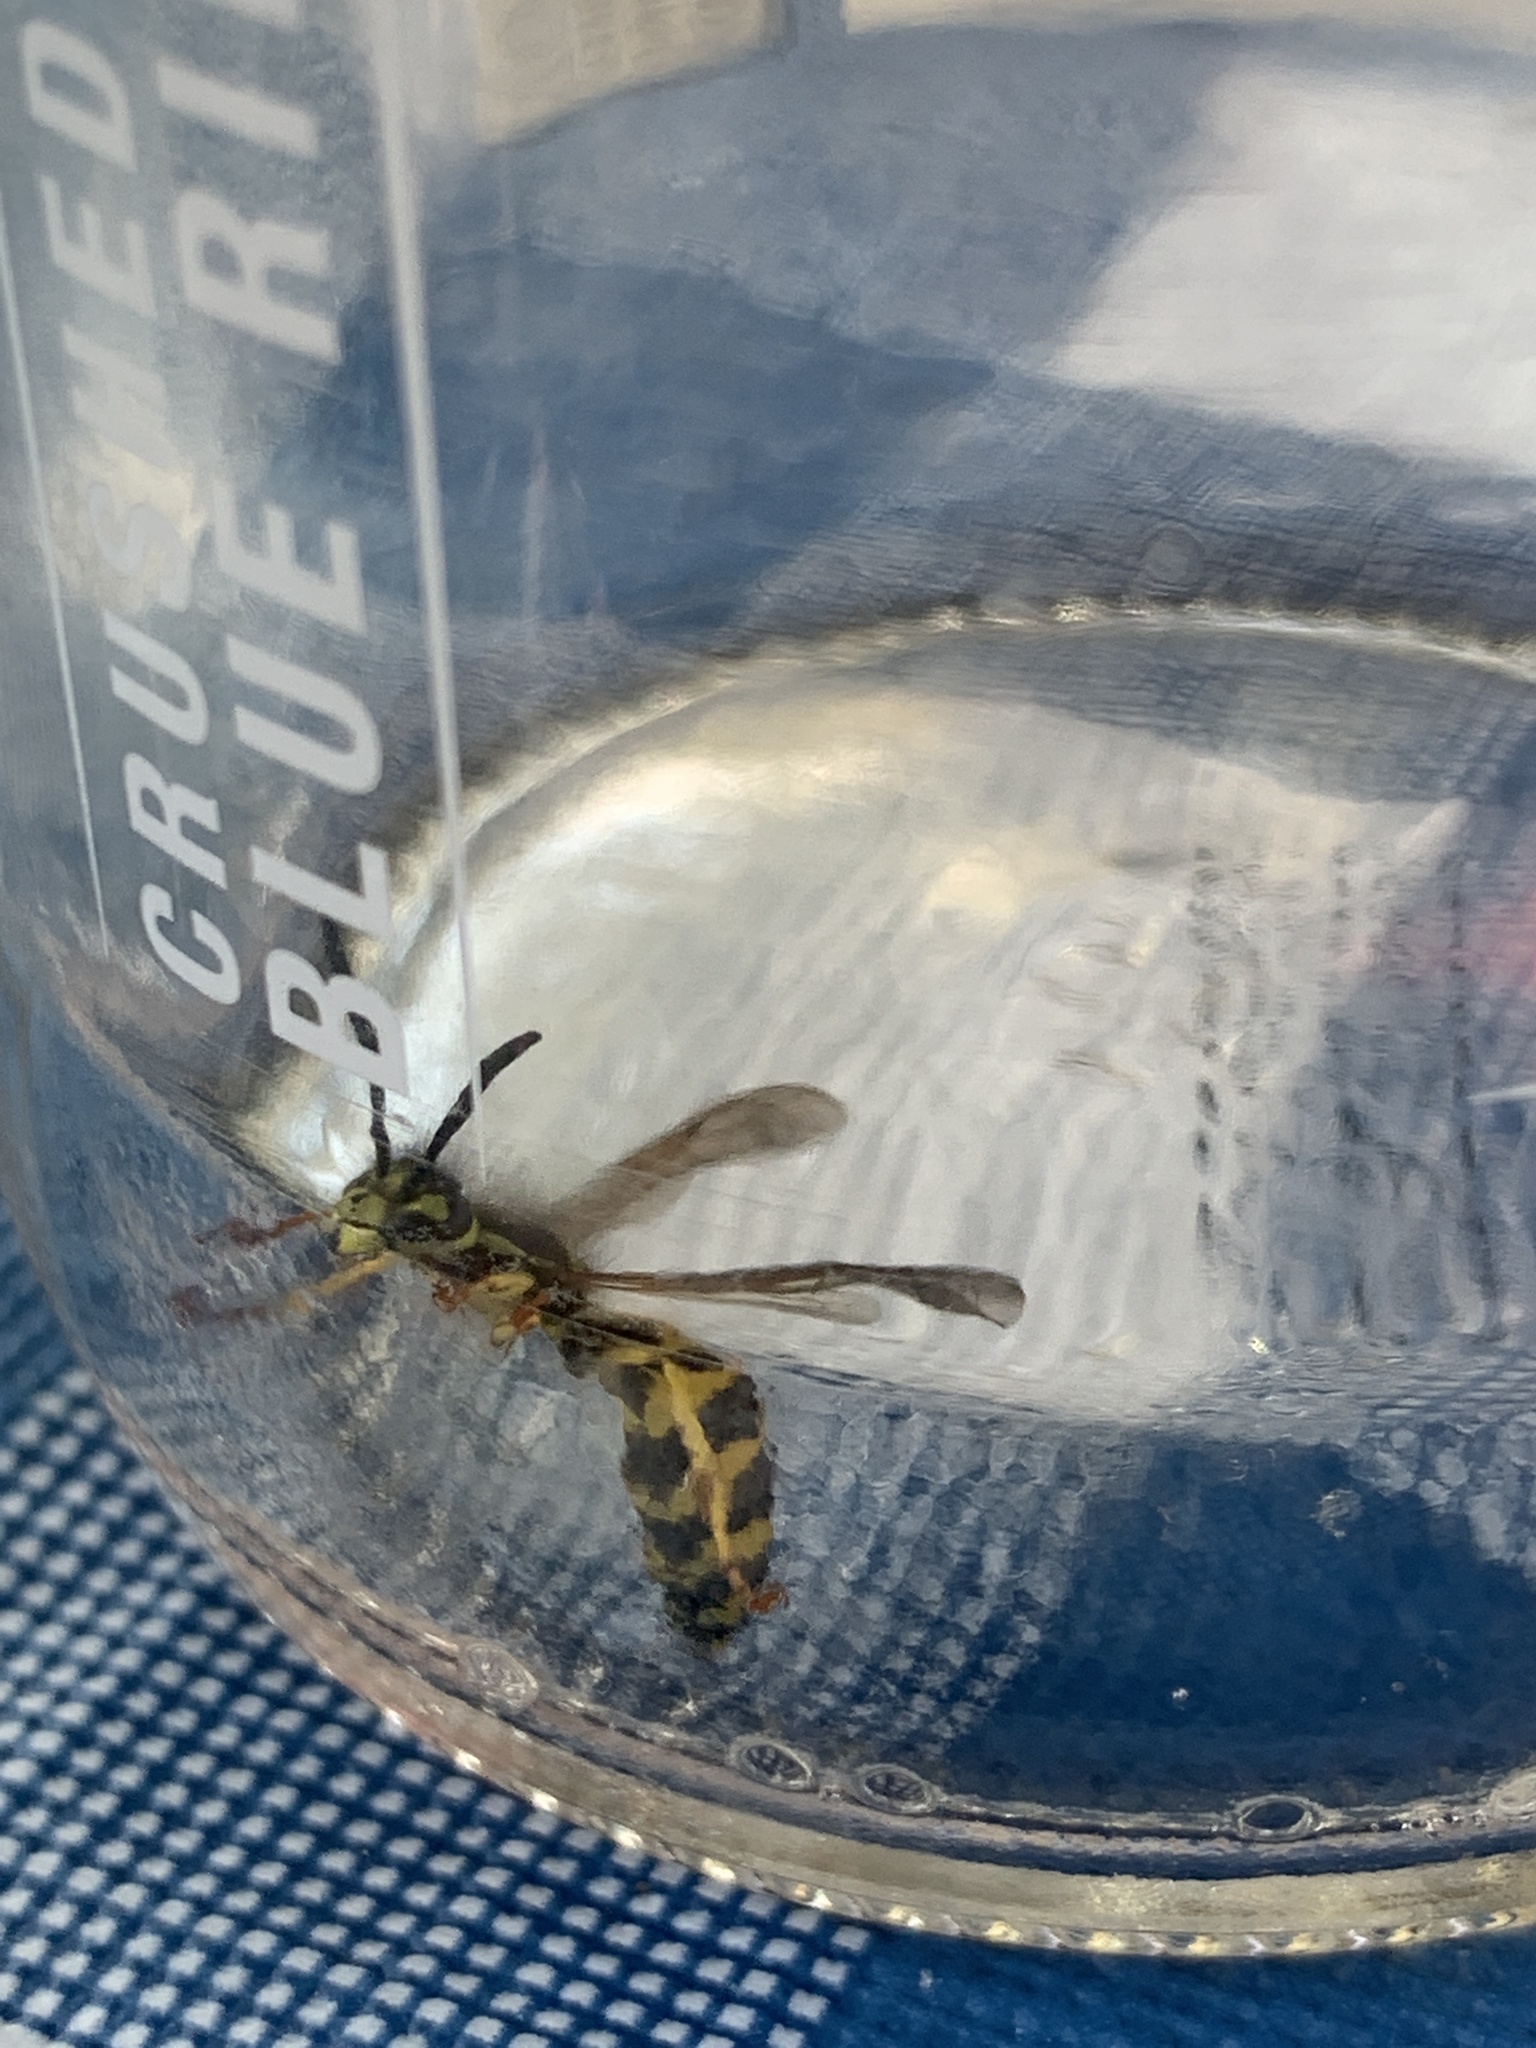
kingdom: Animalia
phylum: Arthropoda
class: Insecta
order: Hymenoptera
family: Vespidae
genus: Vespula
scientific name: Vespula
